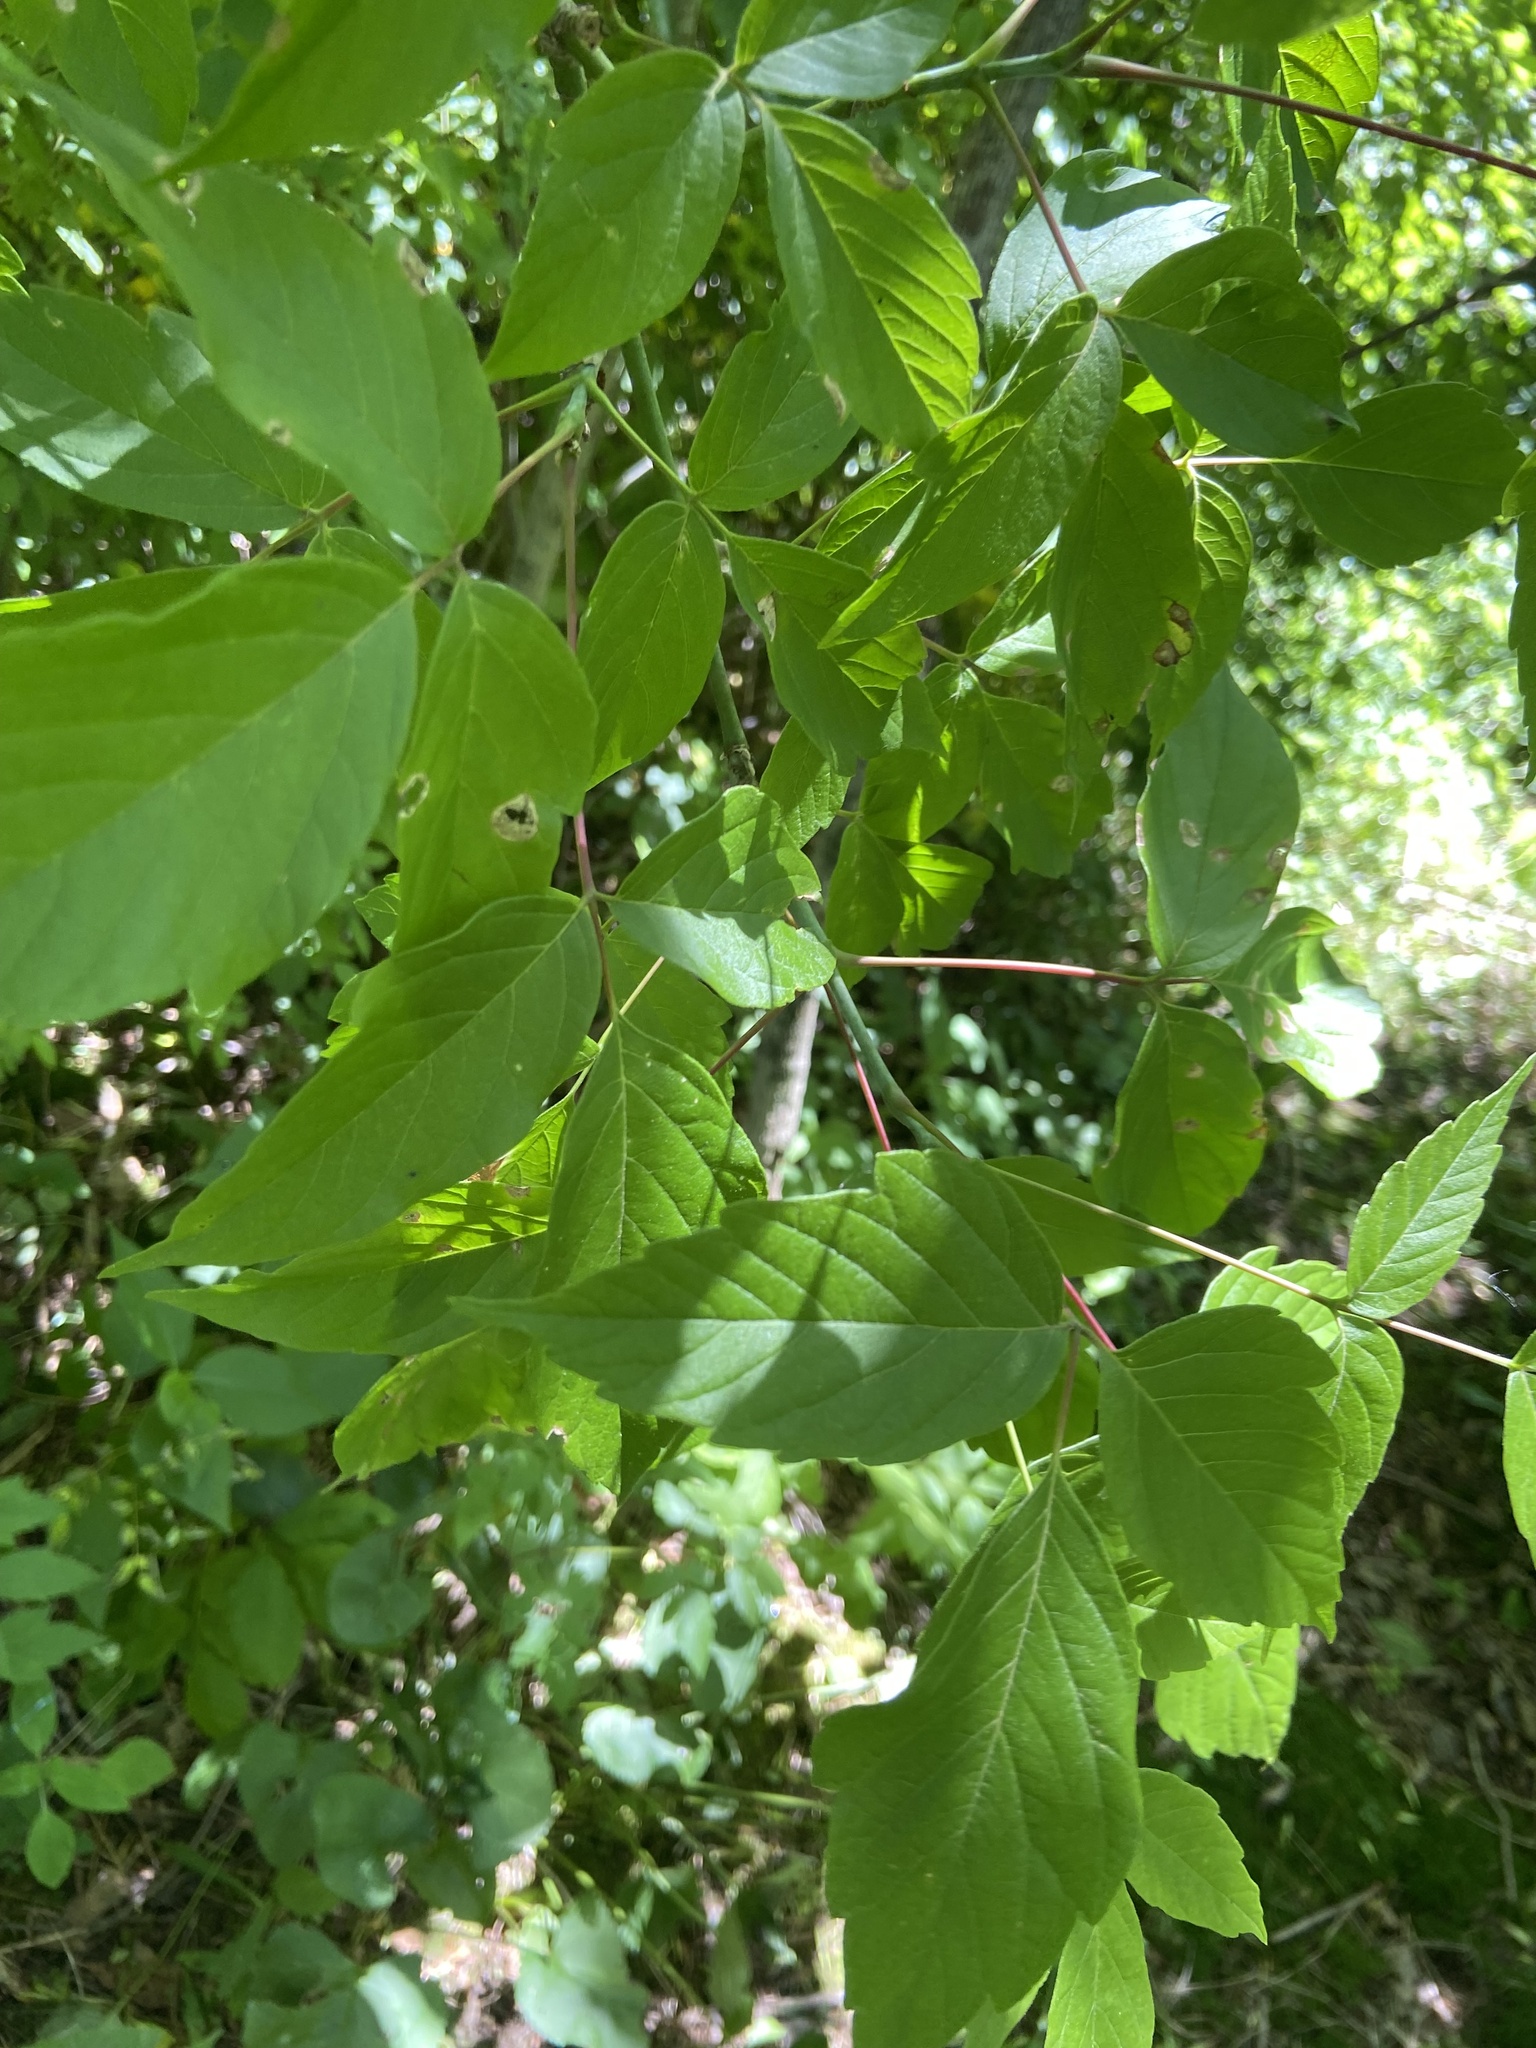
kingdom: Plantae
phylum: Tracheophyta
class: Magnoliopsida
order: Sapindales
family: Sapindaceae
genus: Acer
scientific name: Acer negundo
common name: Ashleaf maple
